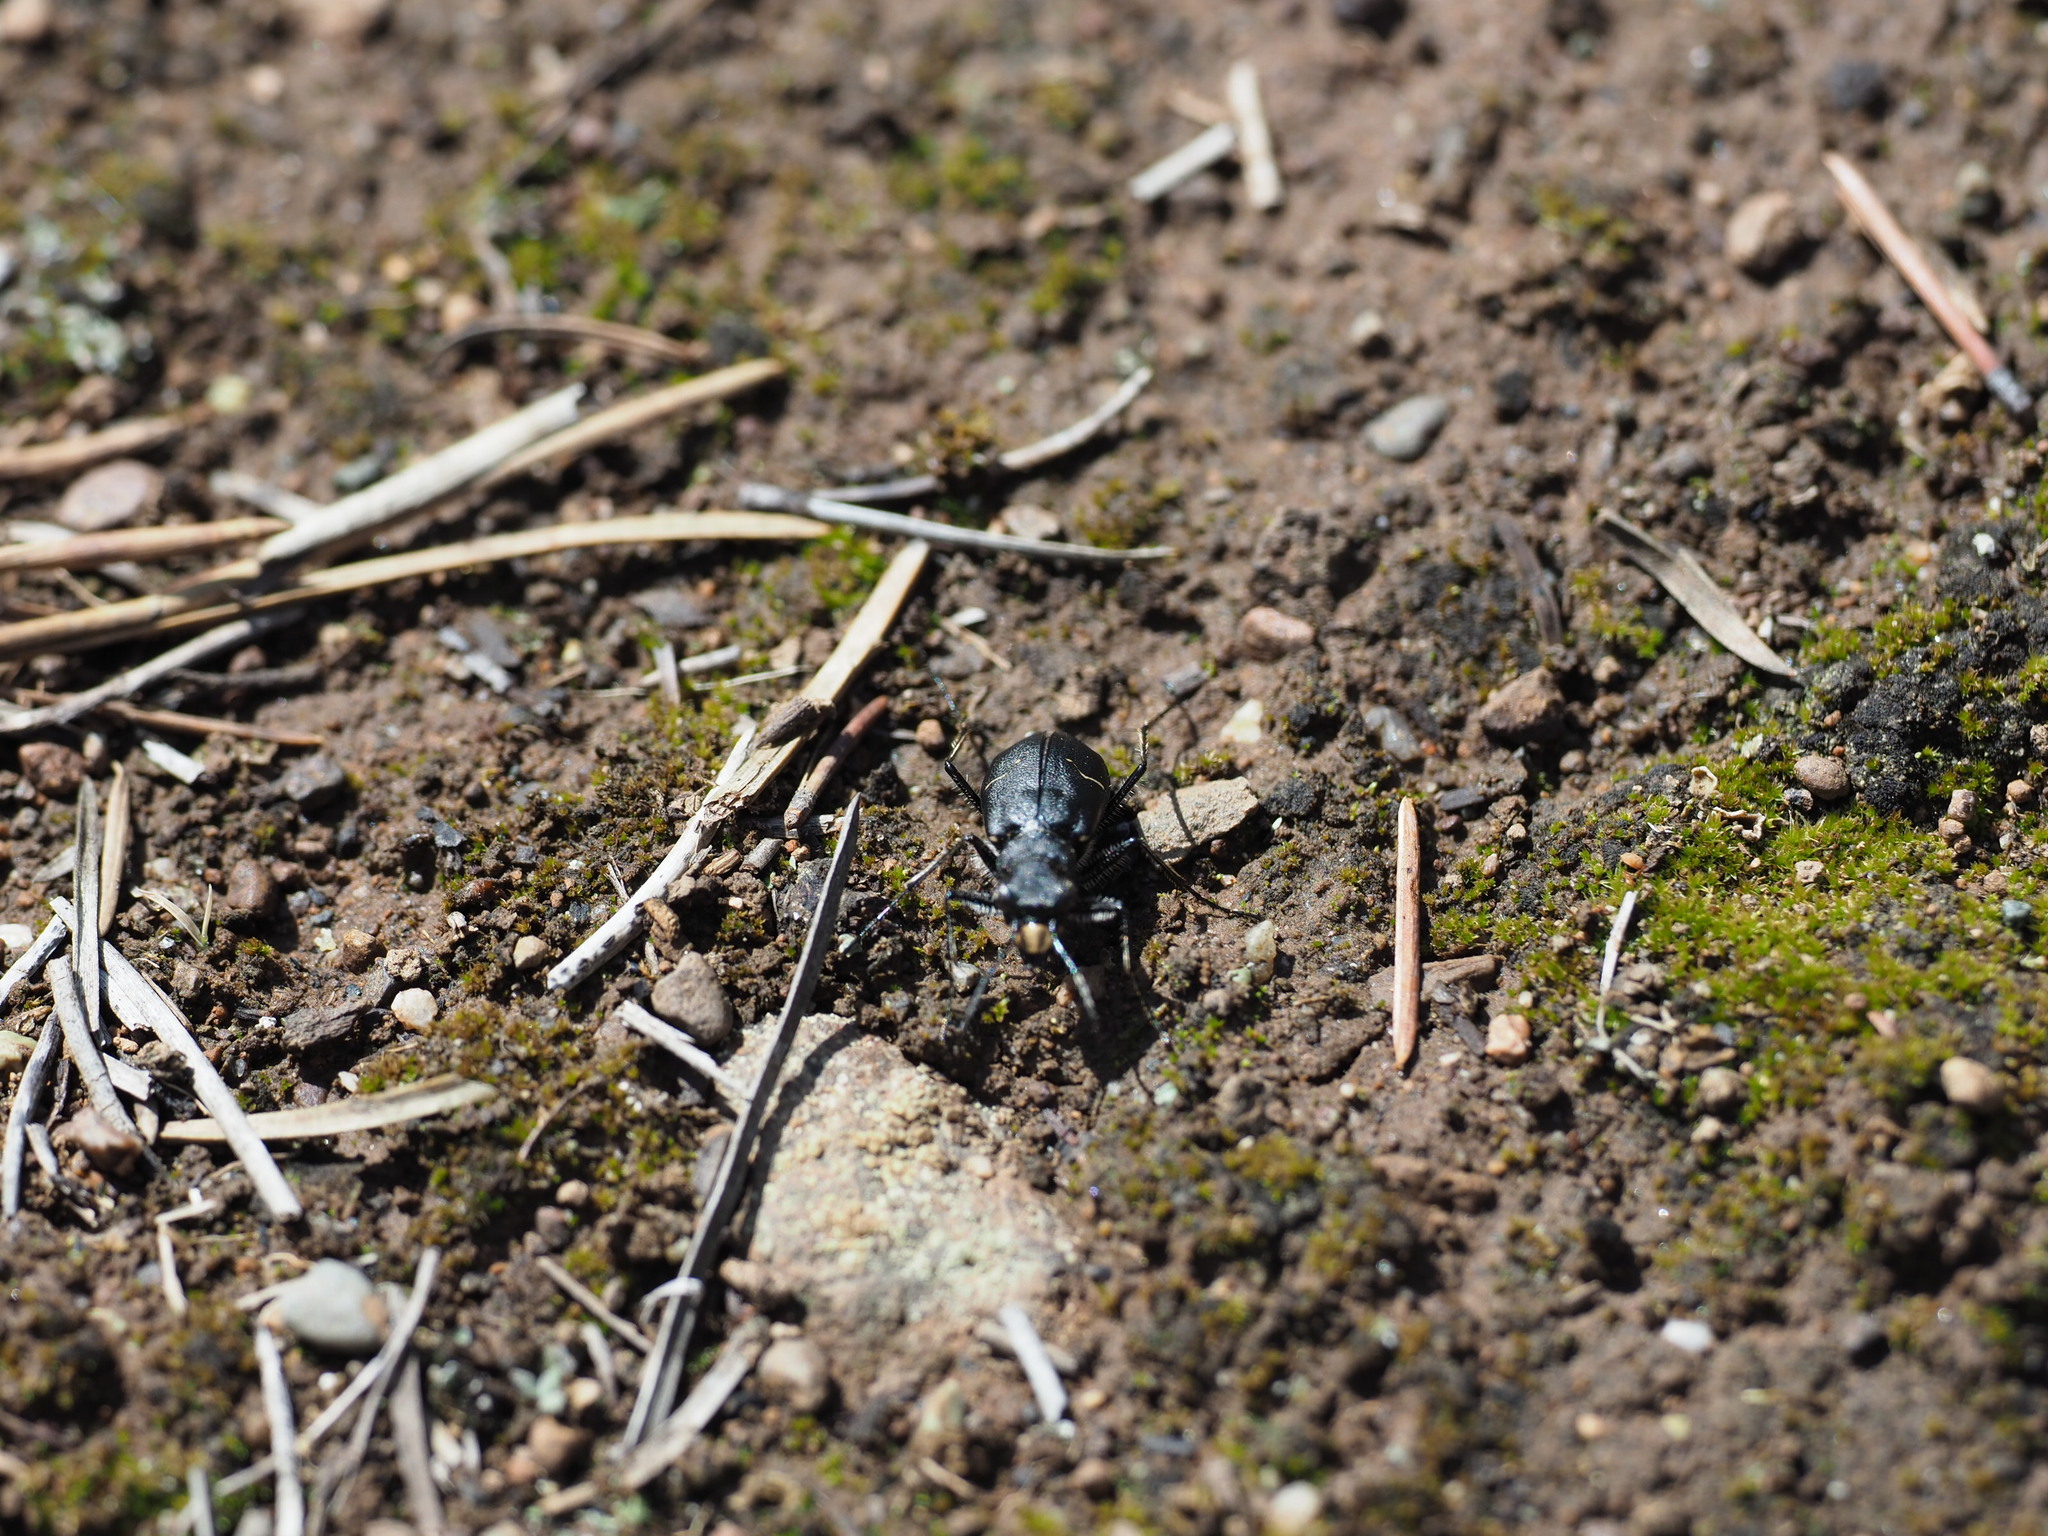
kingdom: Animalia
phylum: Arthropoda
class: Insecta
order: Coleoptera
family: Carabidae
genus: Cicindela
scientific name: Cicindela longilabris
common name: Boreal long-lipped tiger beetle
